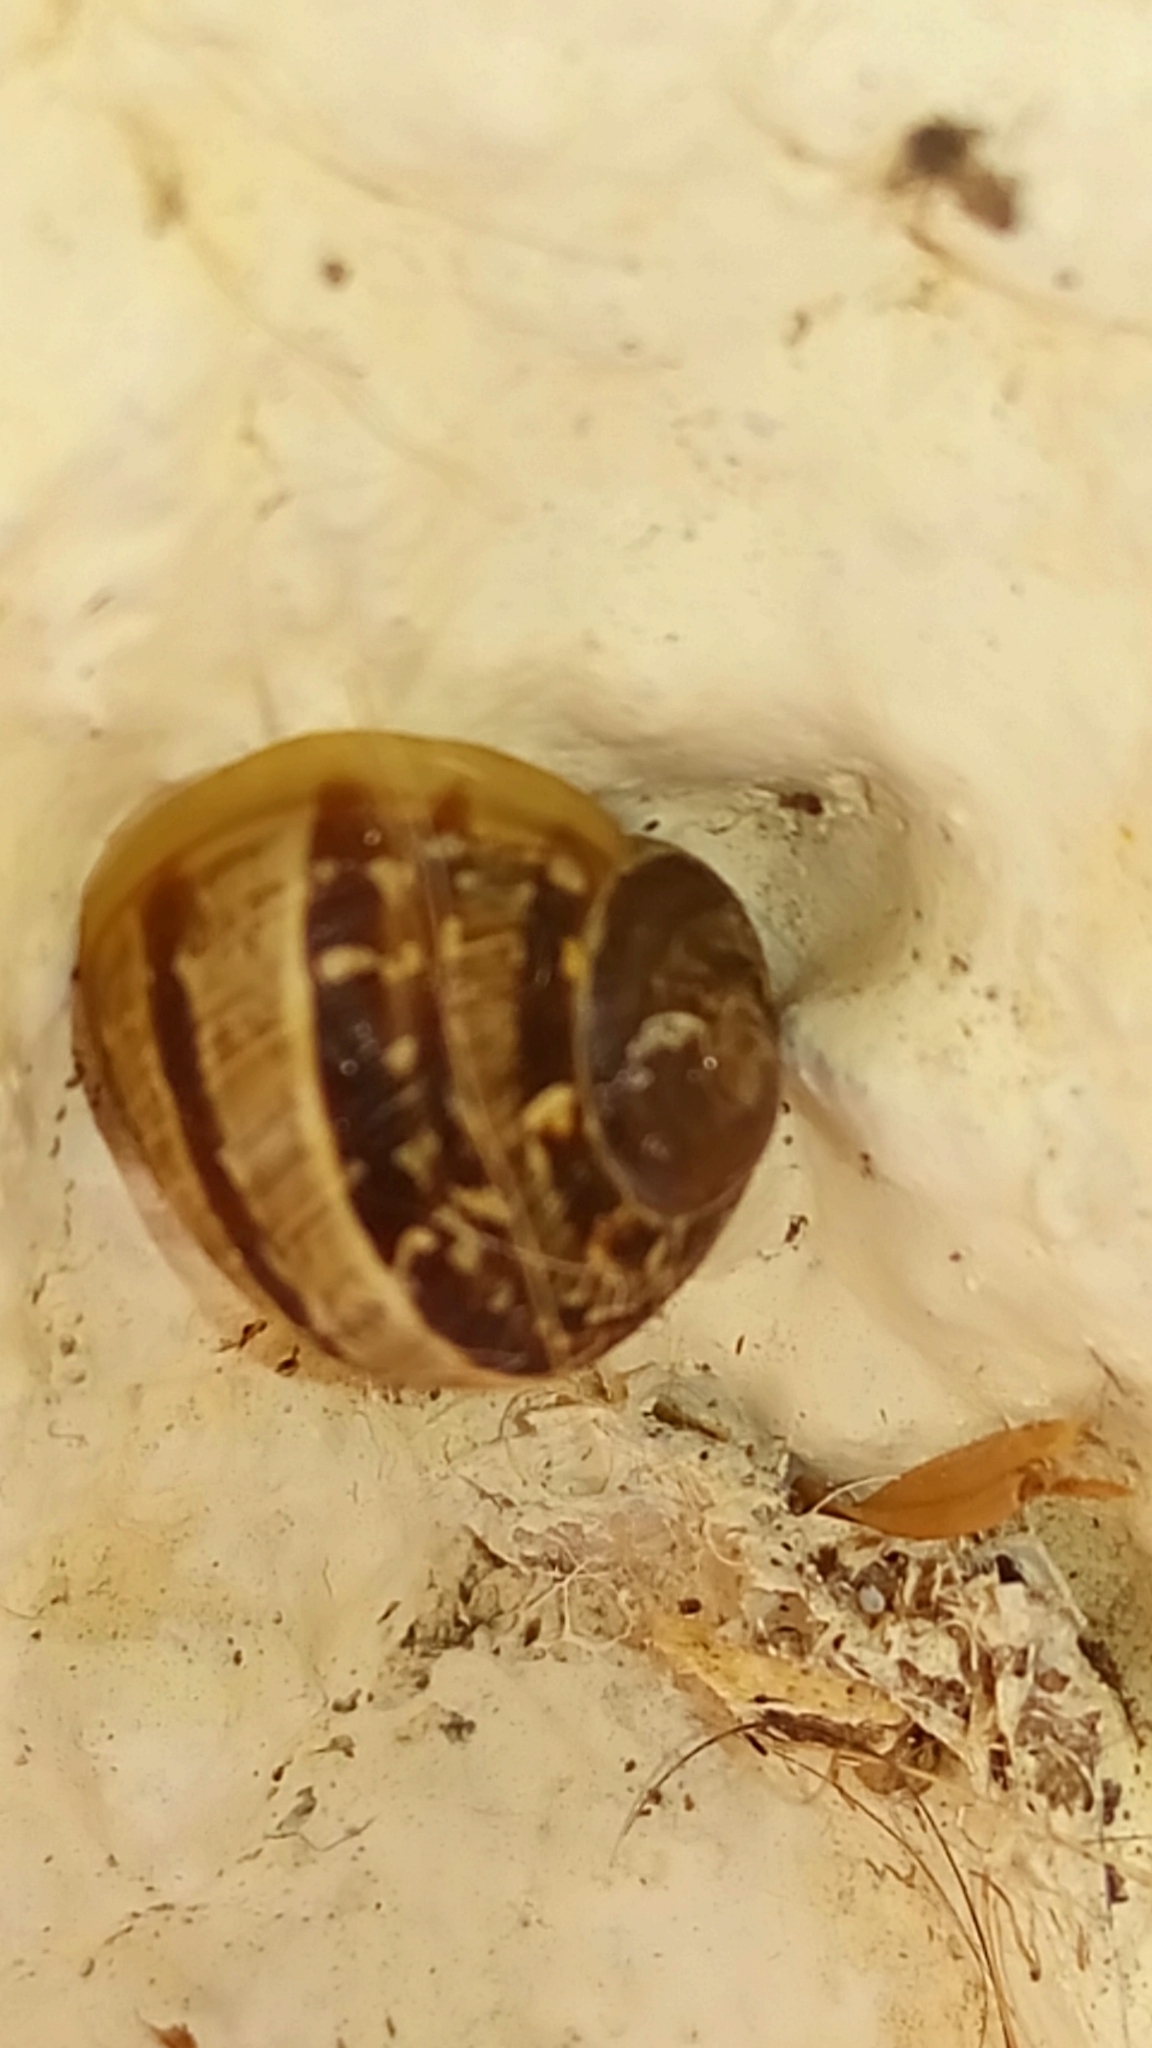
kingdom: Animalia
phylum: Mollusca
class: Gastropoda
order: Stylommatophora
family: Helicidae
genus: Cornu
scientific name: Cornu aspersum
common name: Brown garden snail
